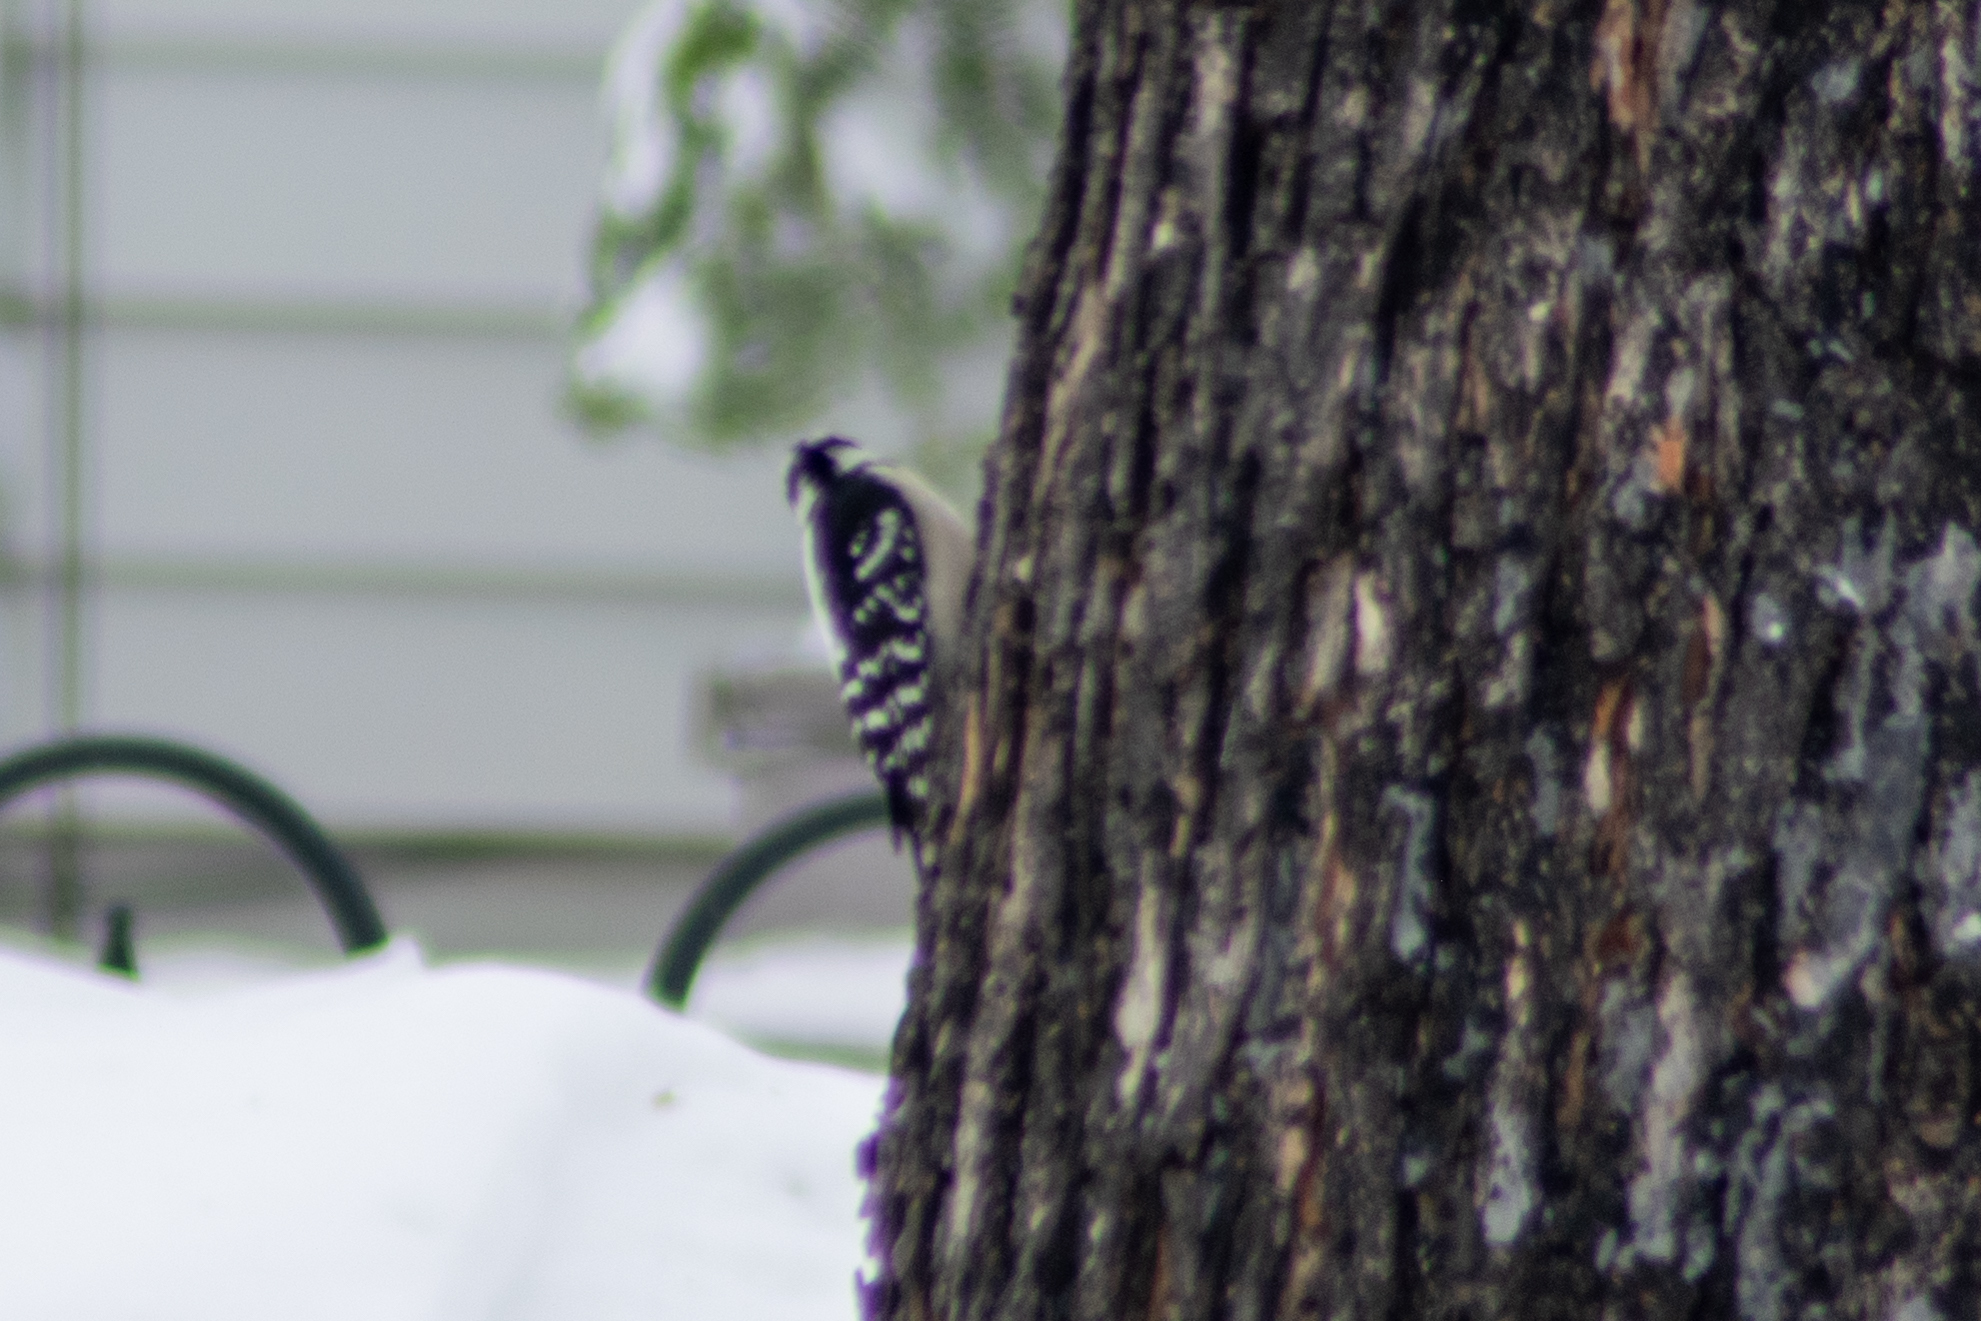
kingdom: Animalia
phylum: Chordata
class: Aves
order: Piciformes
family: Picidae
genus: Dryobates
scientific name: Dryobates pubescens
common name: Downy woodpecker
